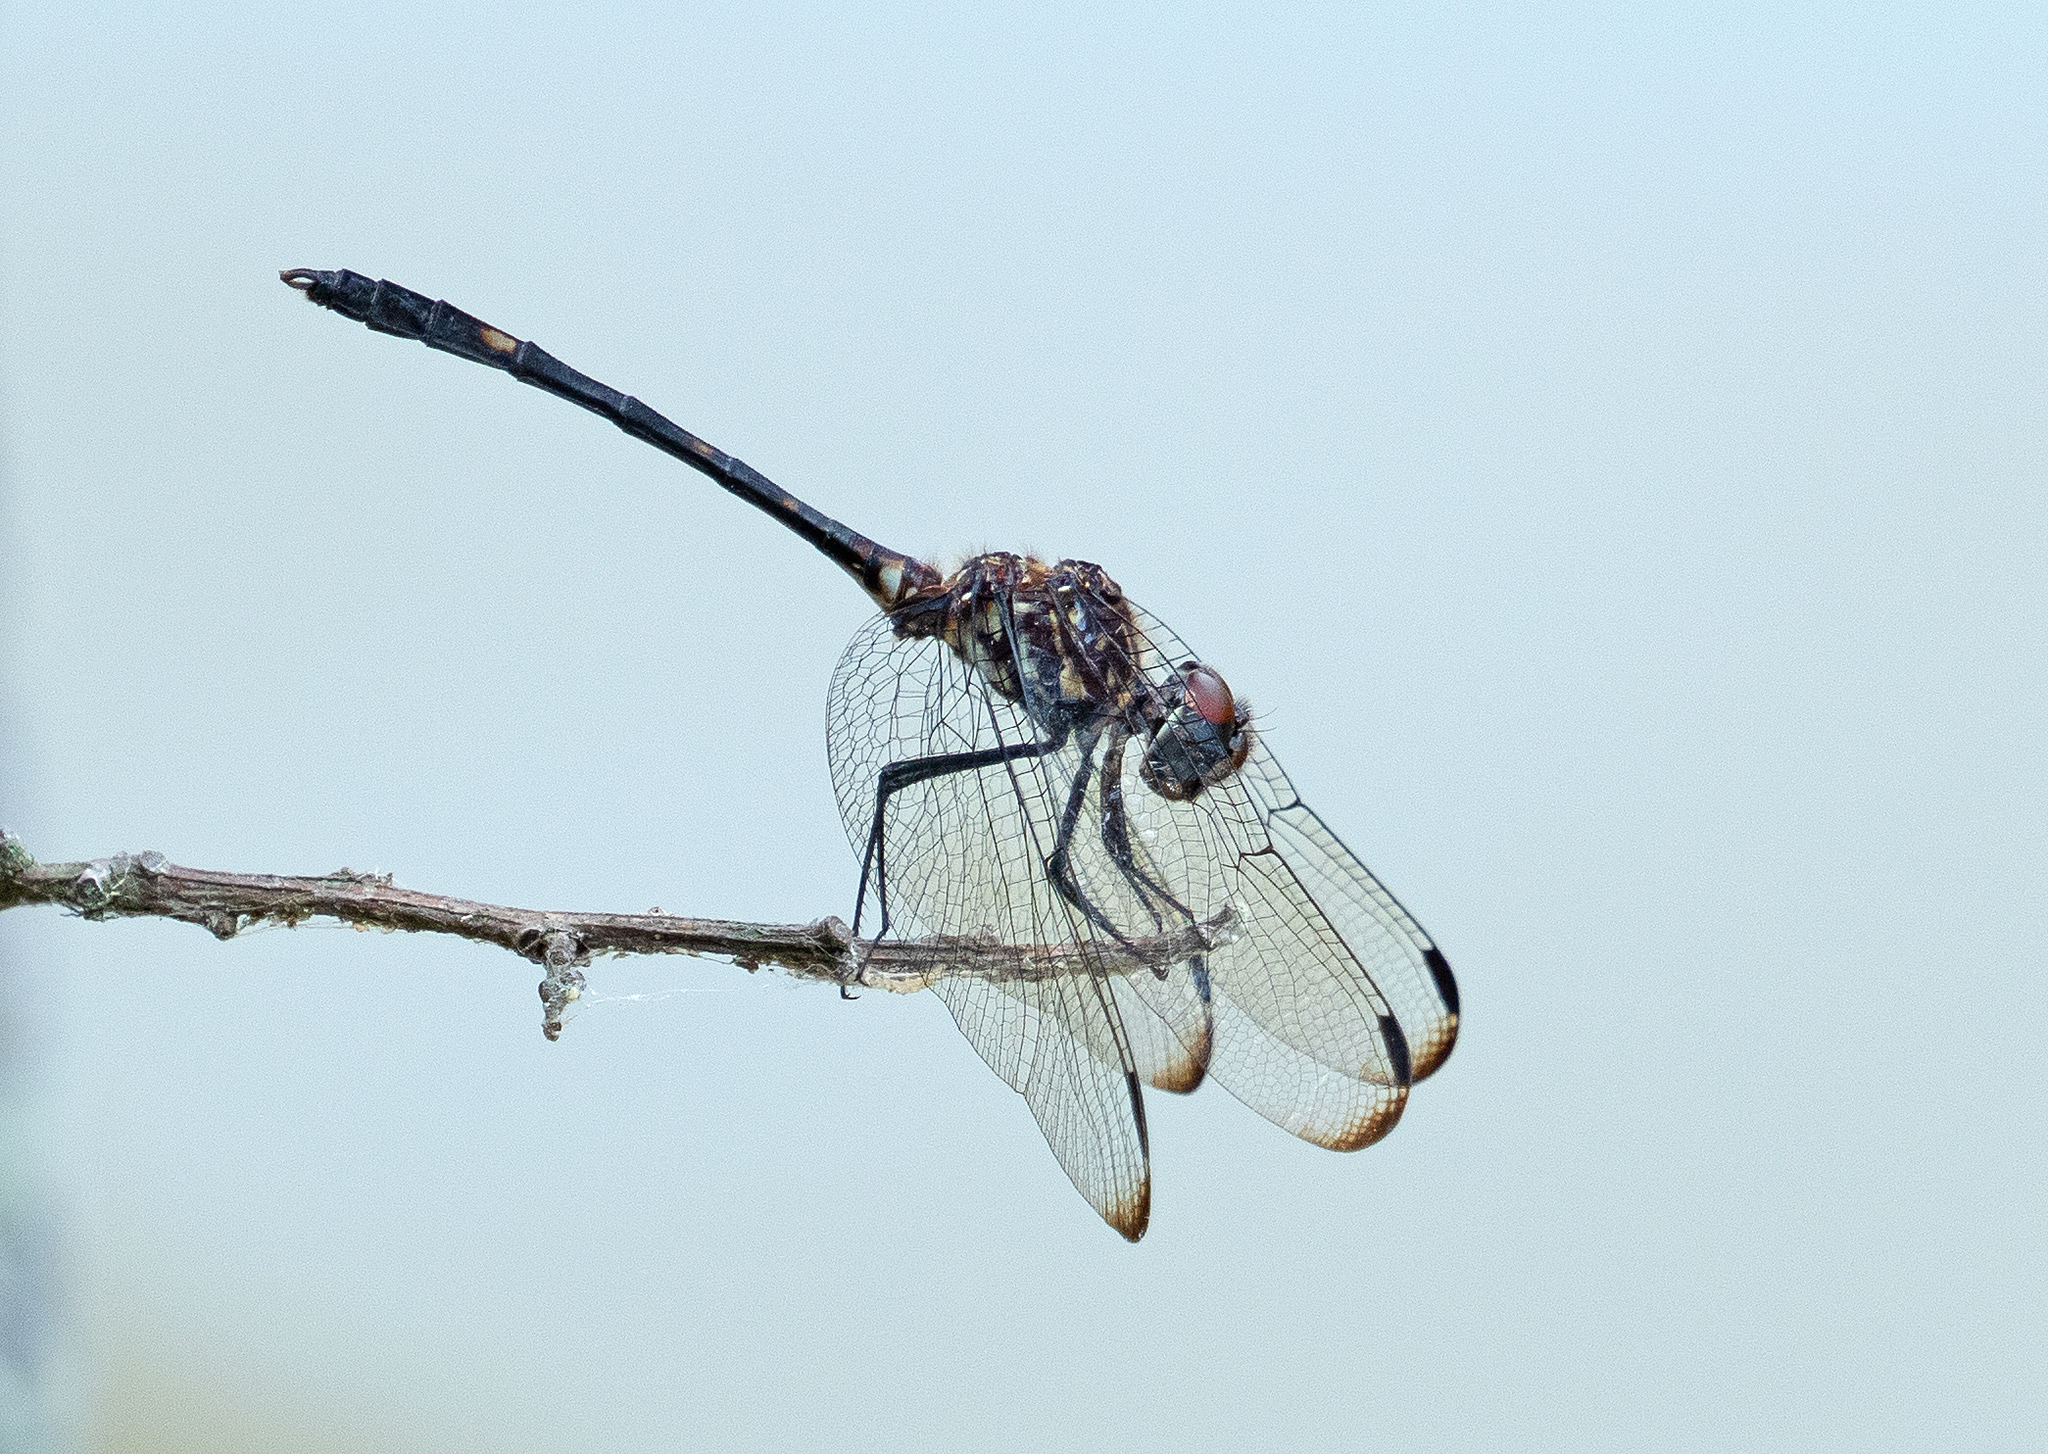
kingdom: Animalia
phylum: Arthropoda
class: Insecta
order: Odonata
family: Libellulidae
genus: Dythemis
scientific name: Dythemis velox
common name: Swift setwing
